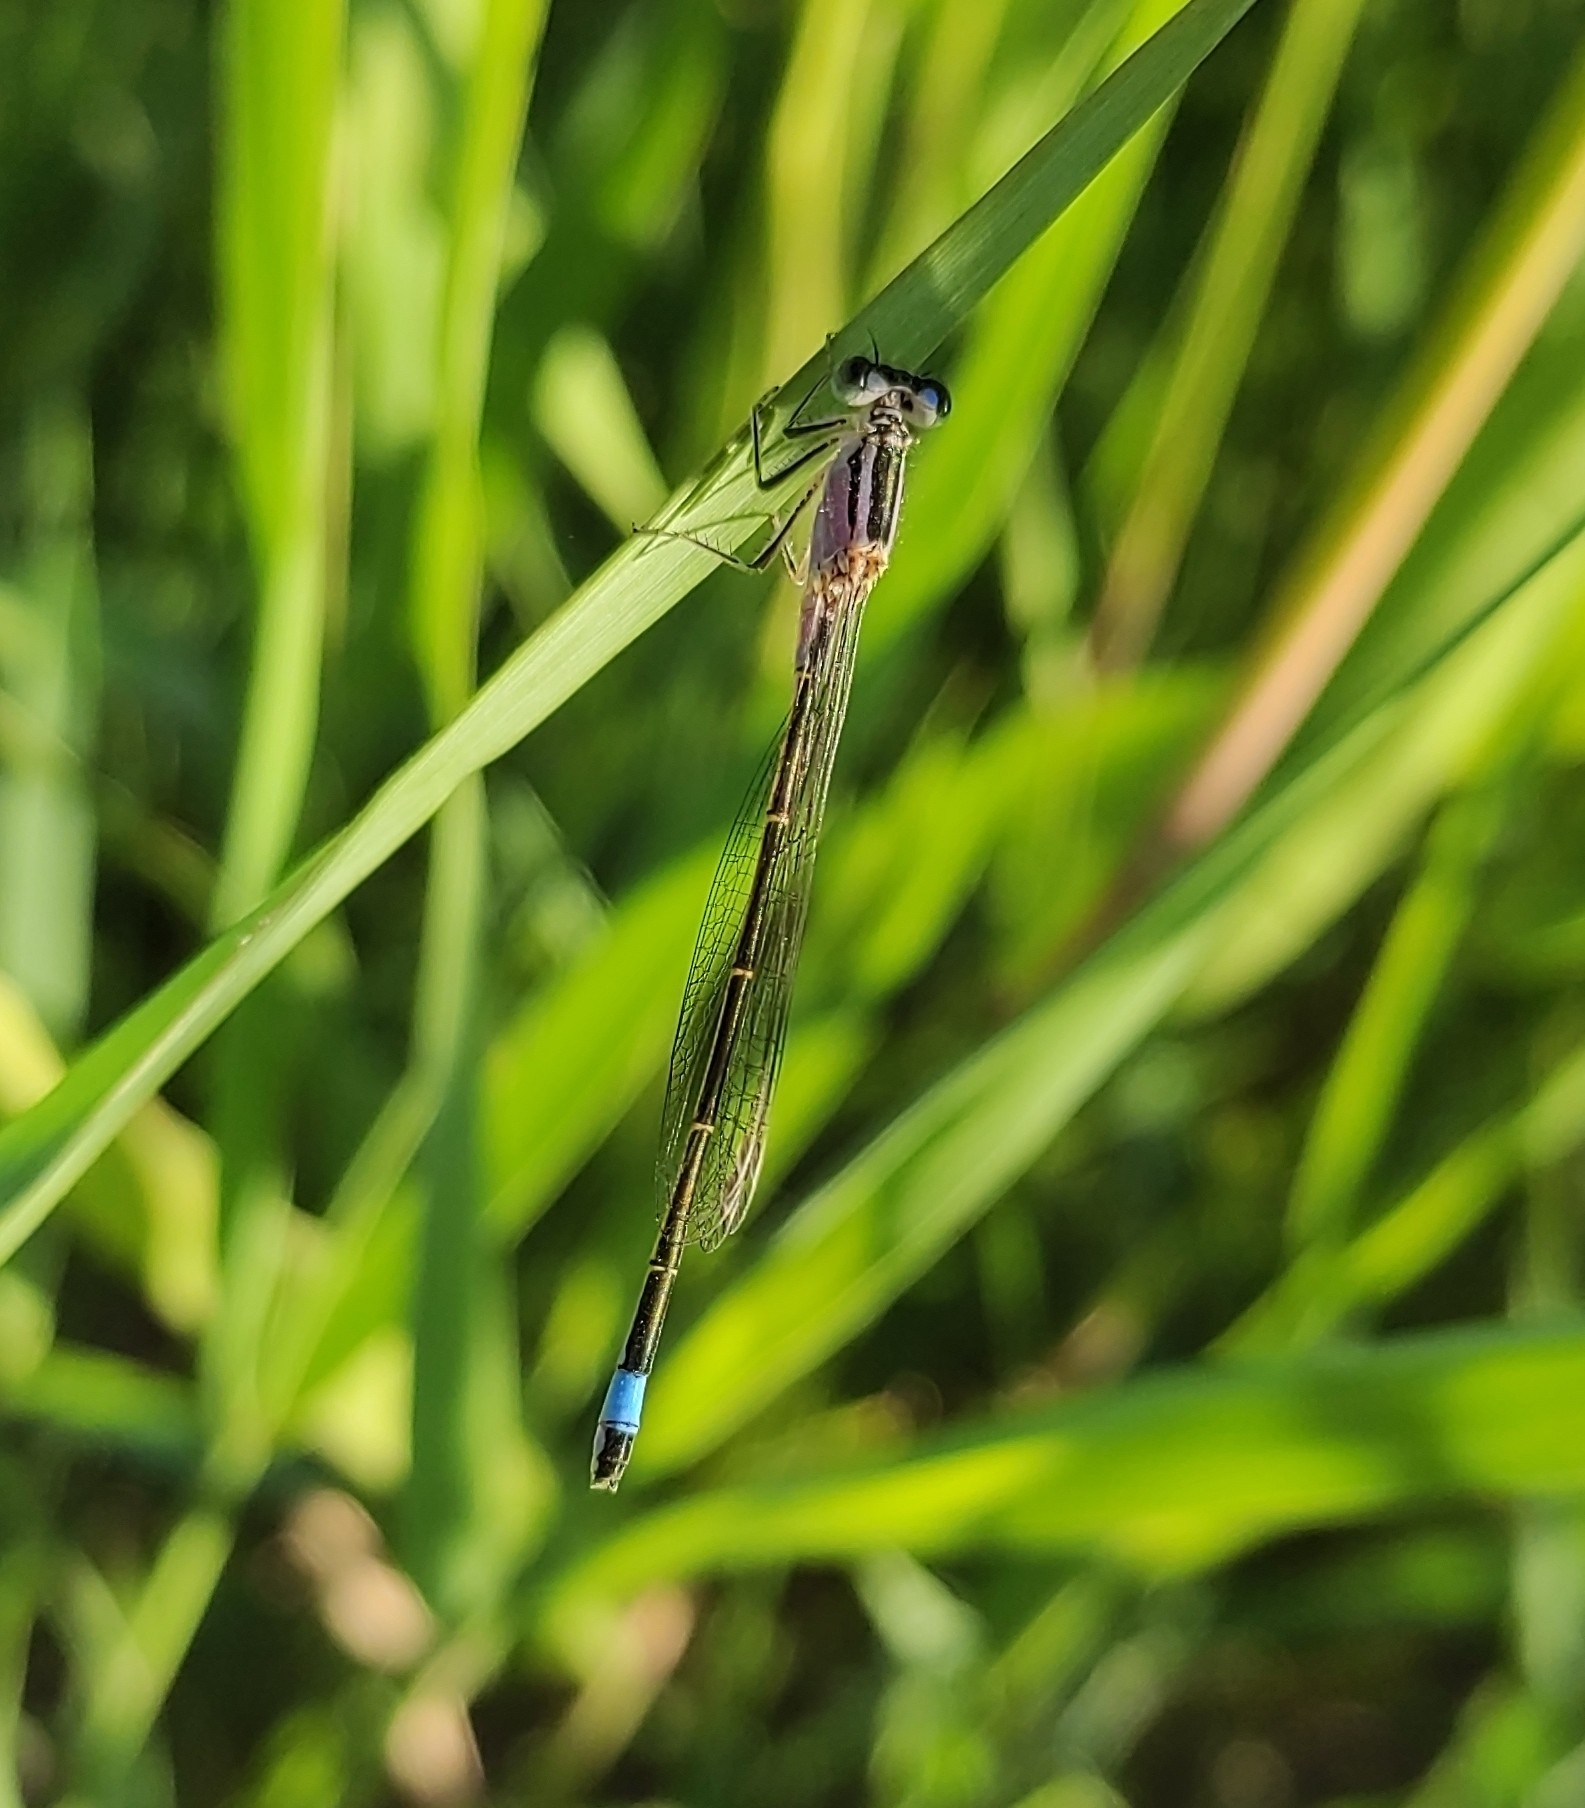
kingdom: Animalia
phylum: Arthropoda
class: Insecta
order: Odonata
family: Coenagrionidae
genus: Ischnura
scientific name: Ischnura elegans
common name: Blue-tailed damselfly
